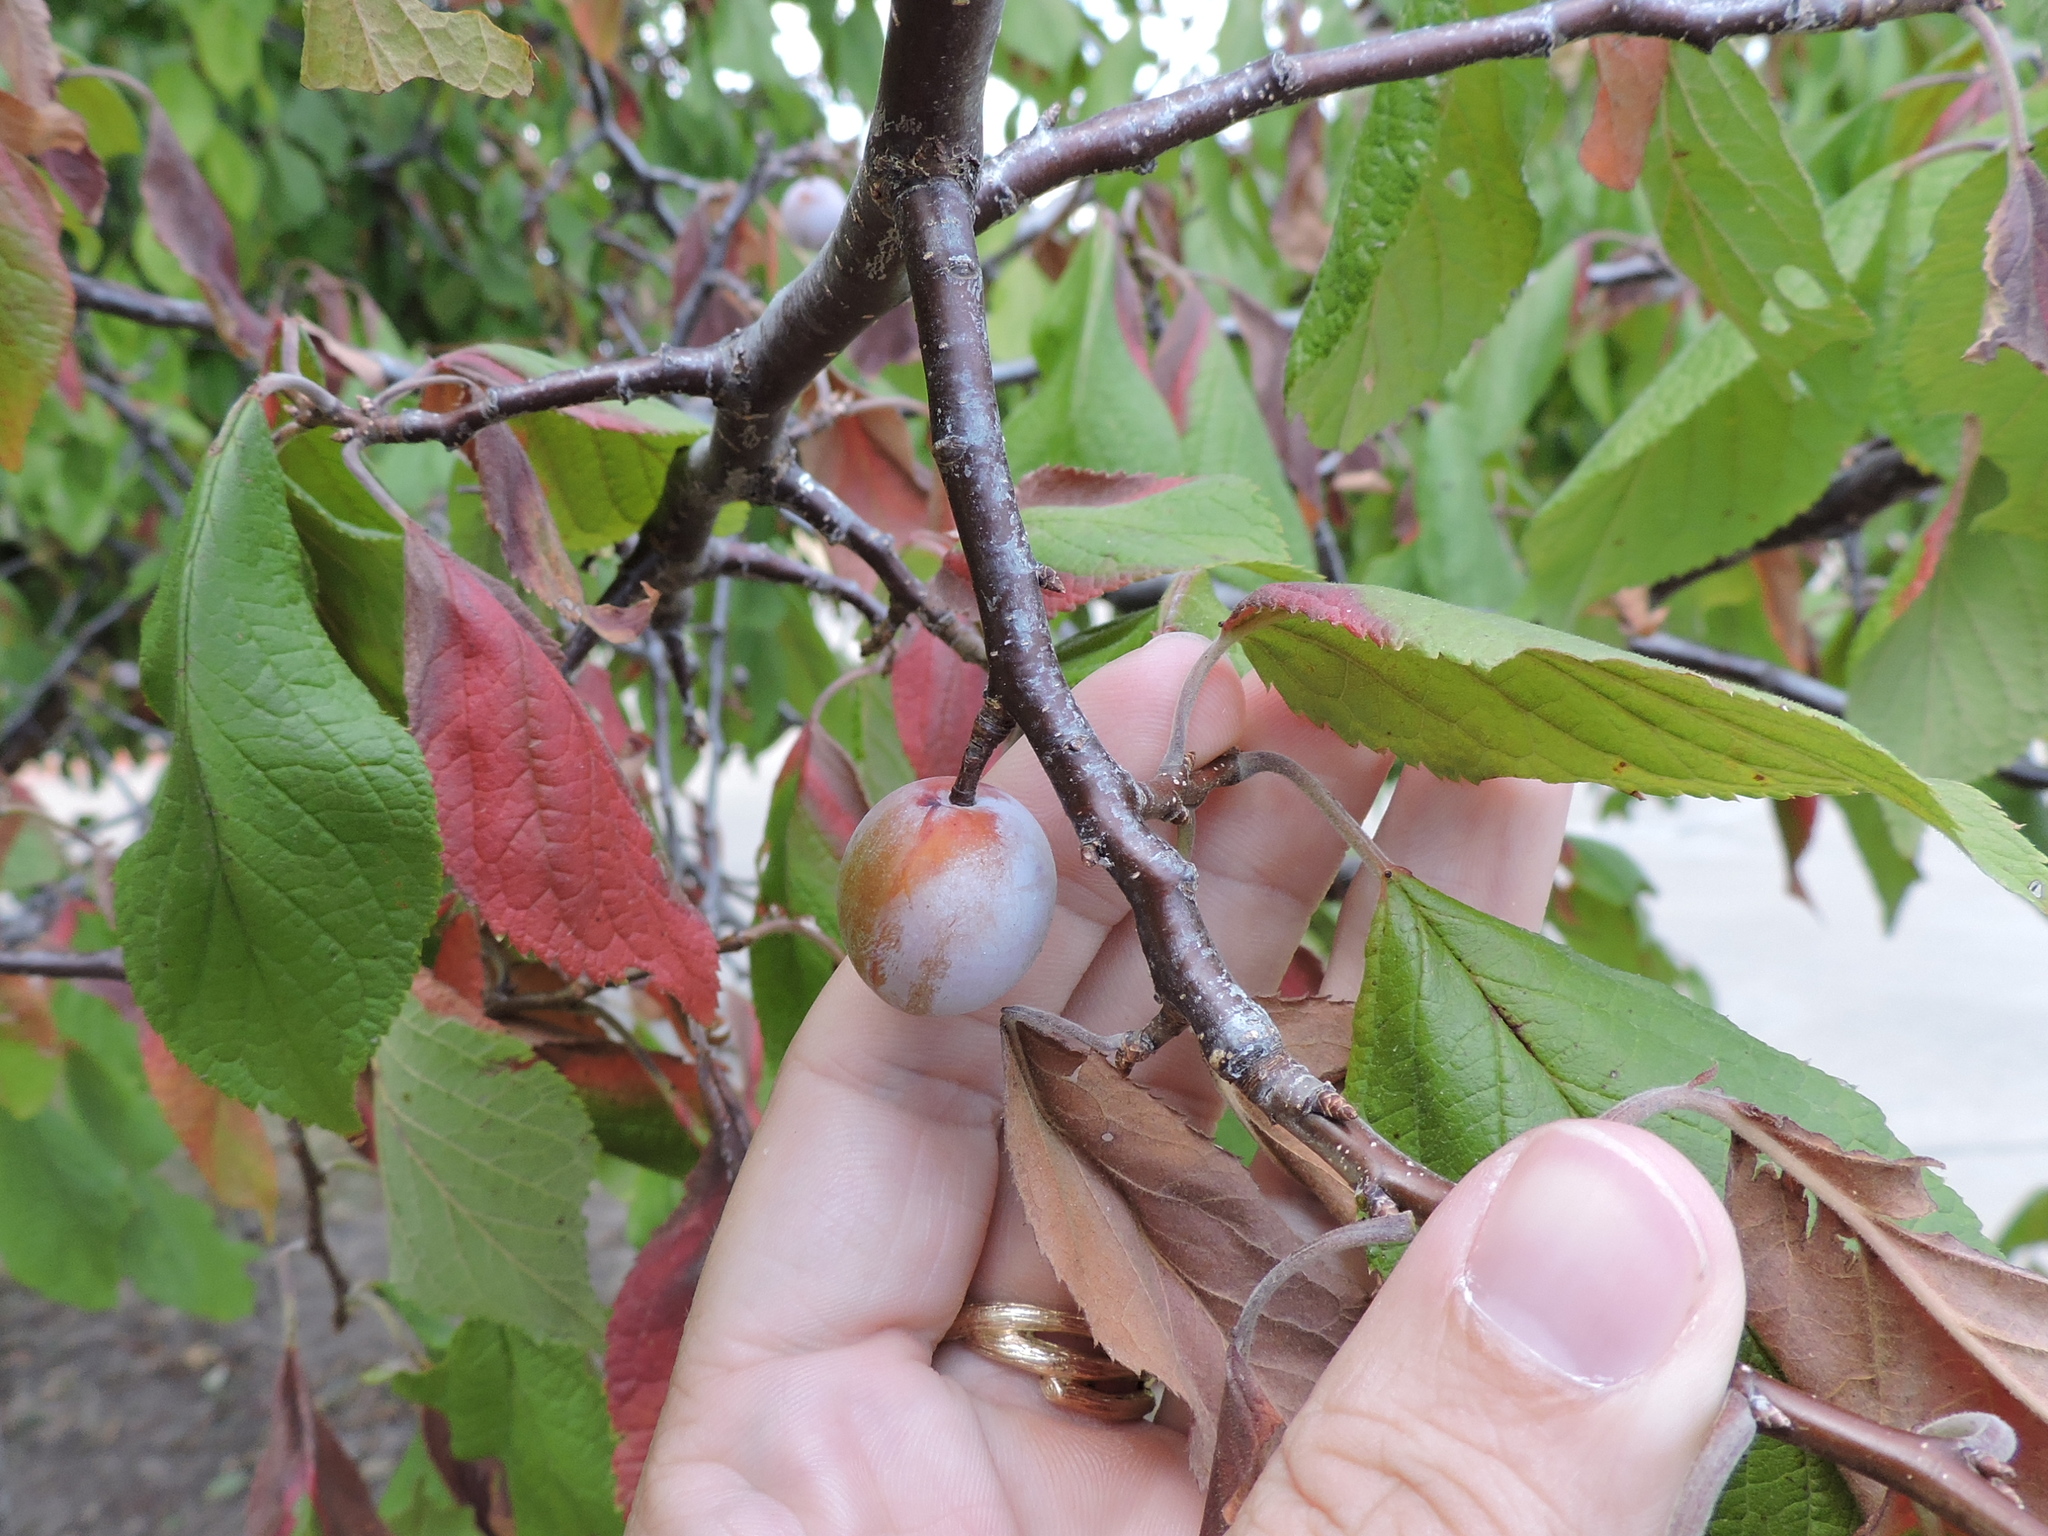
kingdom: Plantae
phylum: Tracheophyta
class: Magnoliopsida
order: Rosales
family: Rosaceae
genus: Prunus
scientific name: Prunus mexicana
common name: Mexican plum
